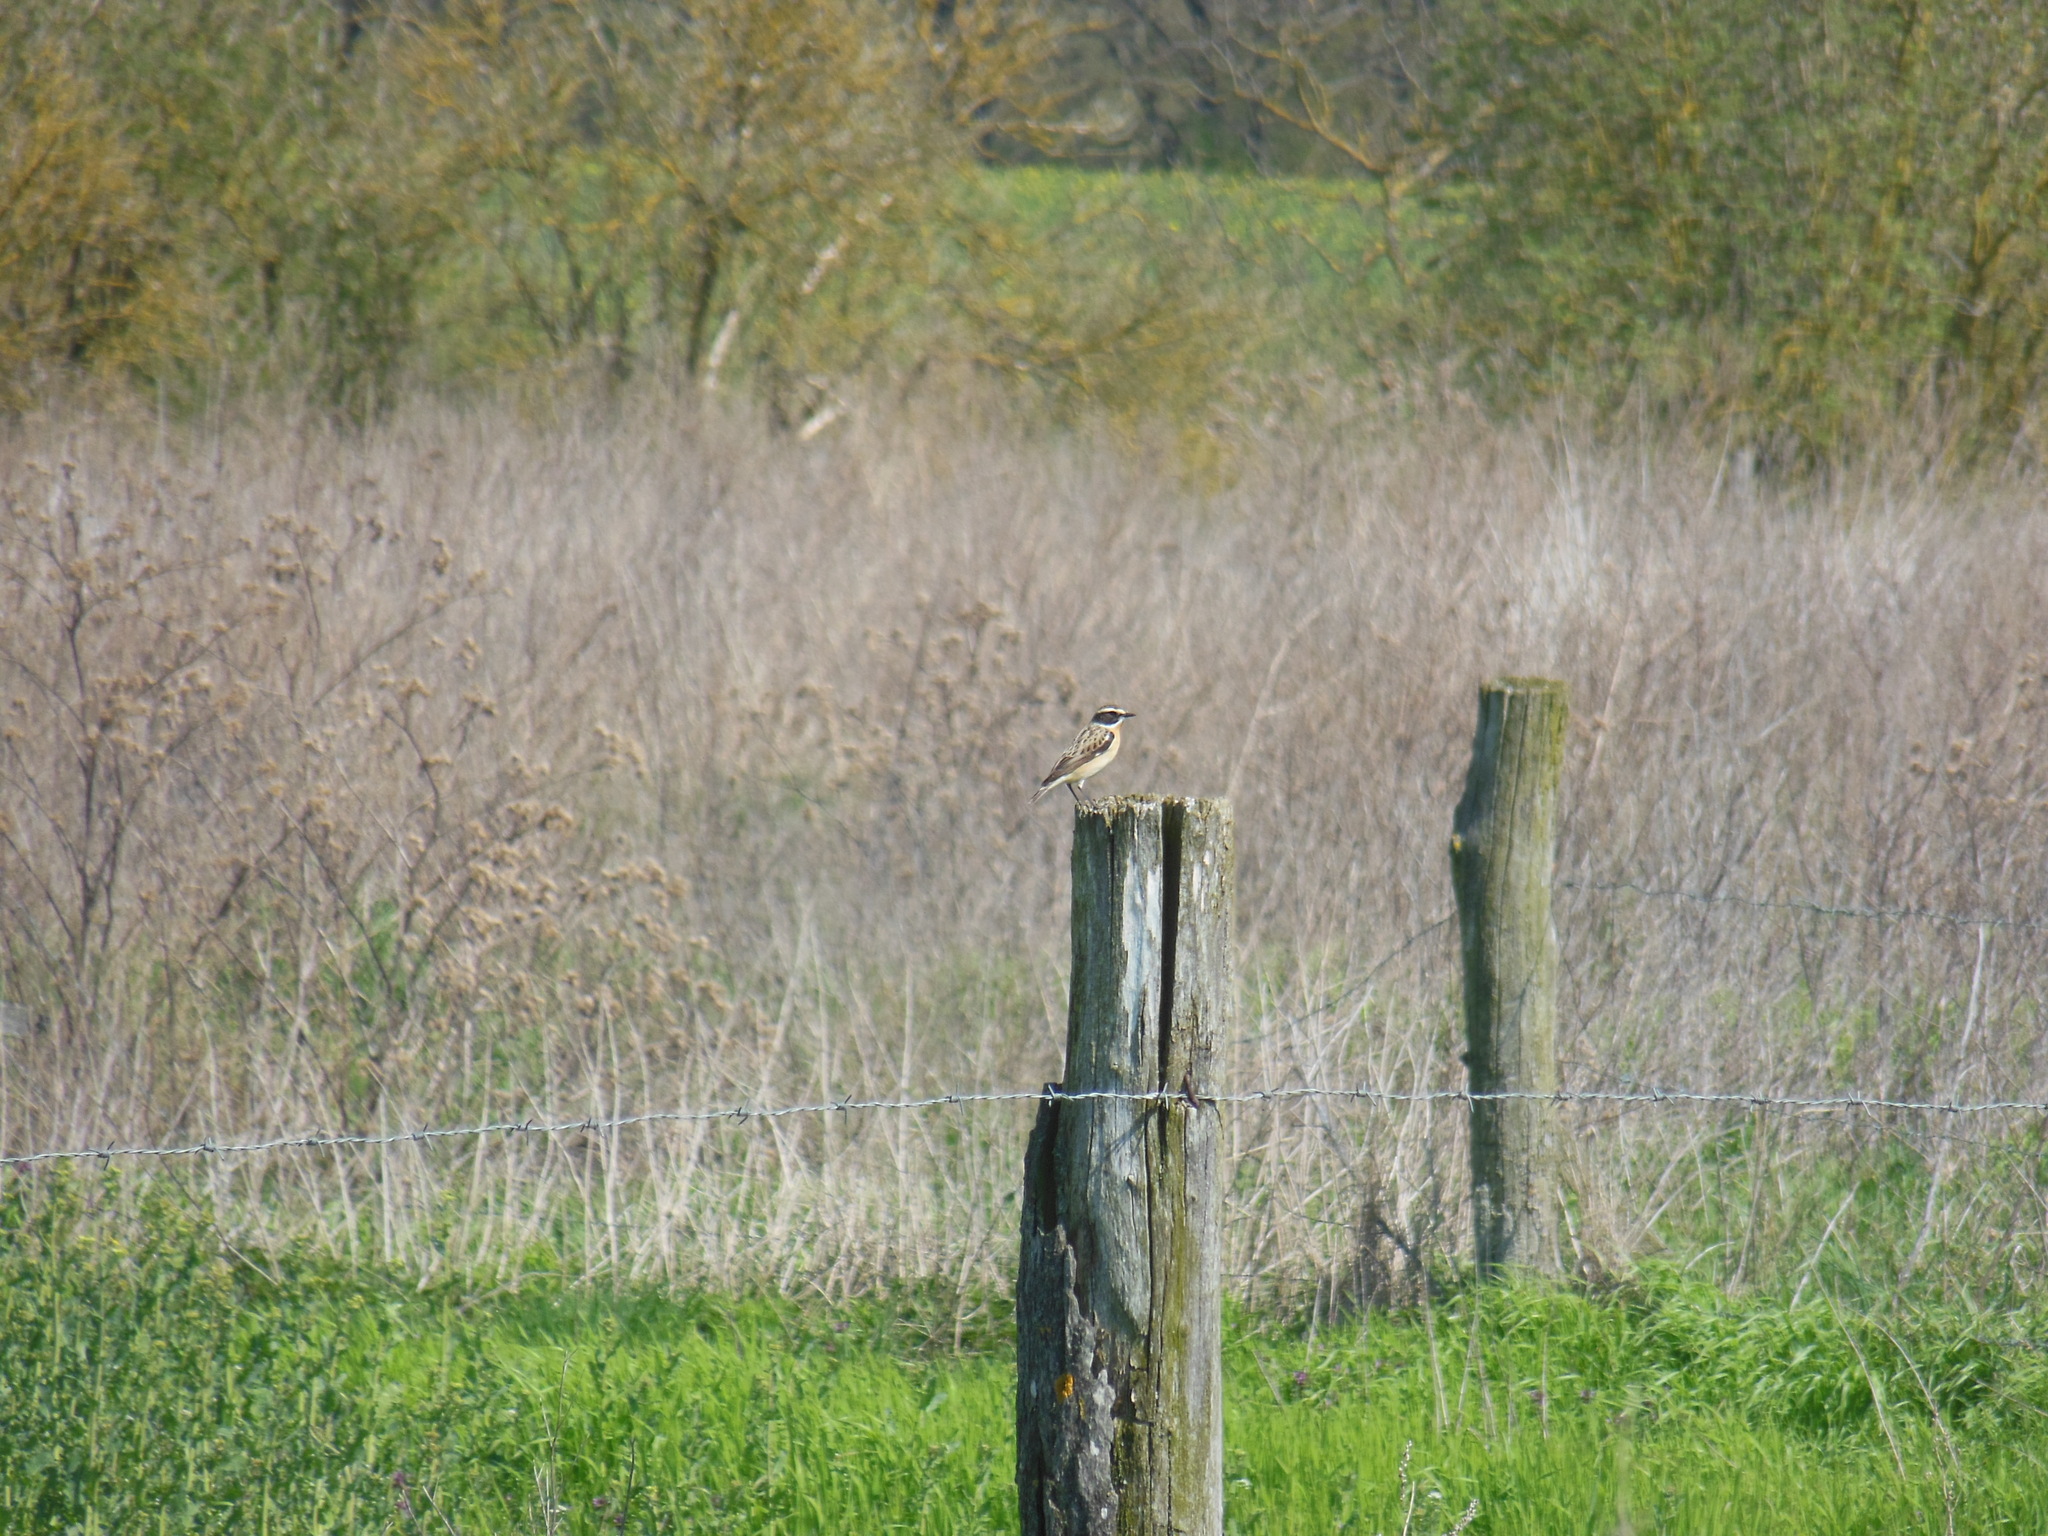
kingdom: Animalia
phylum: Chordata
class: Aves
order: Passeriformes
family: Muscicapidae
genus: Saxicola
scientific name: Saxicola rubetra
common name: Whinchat
